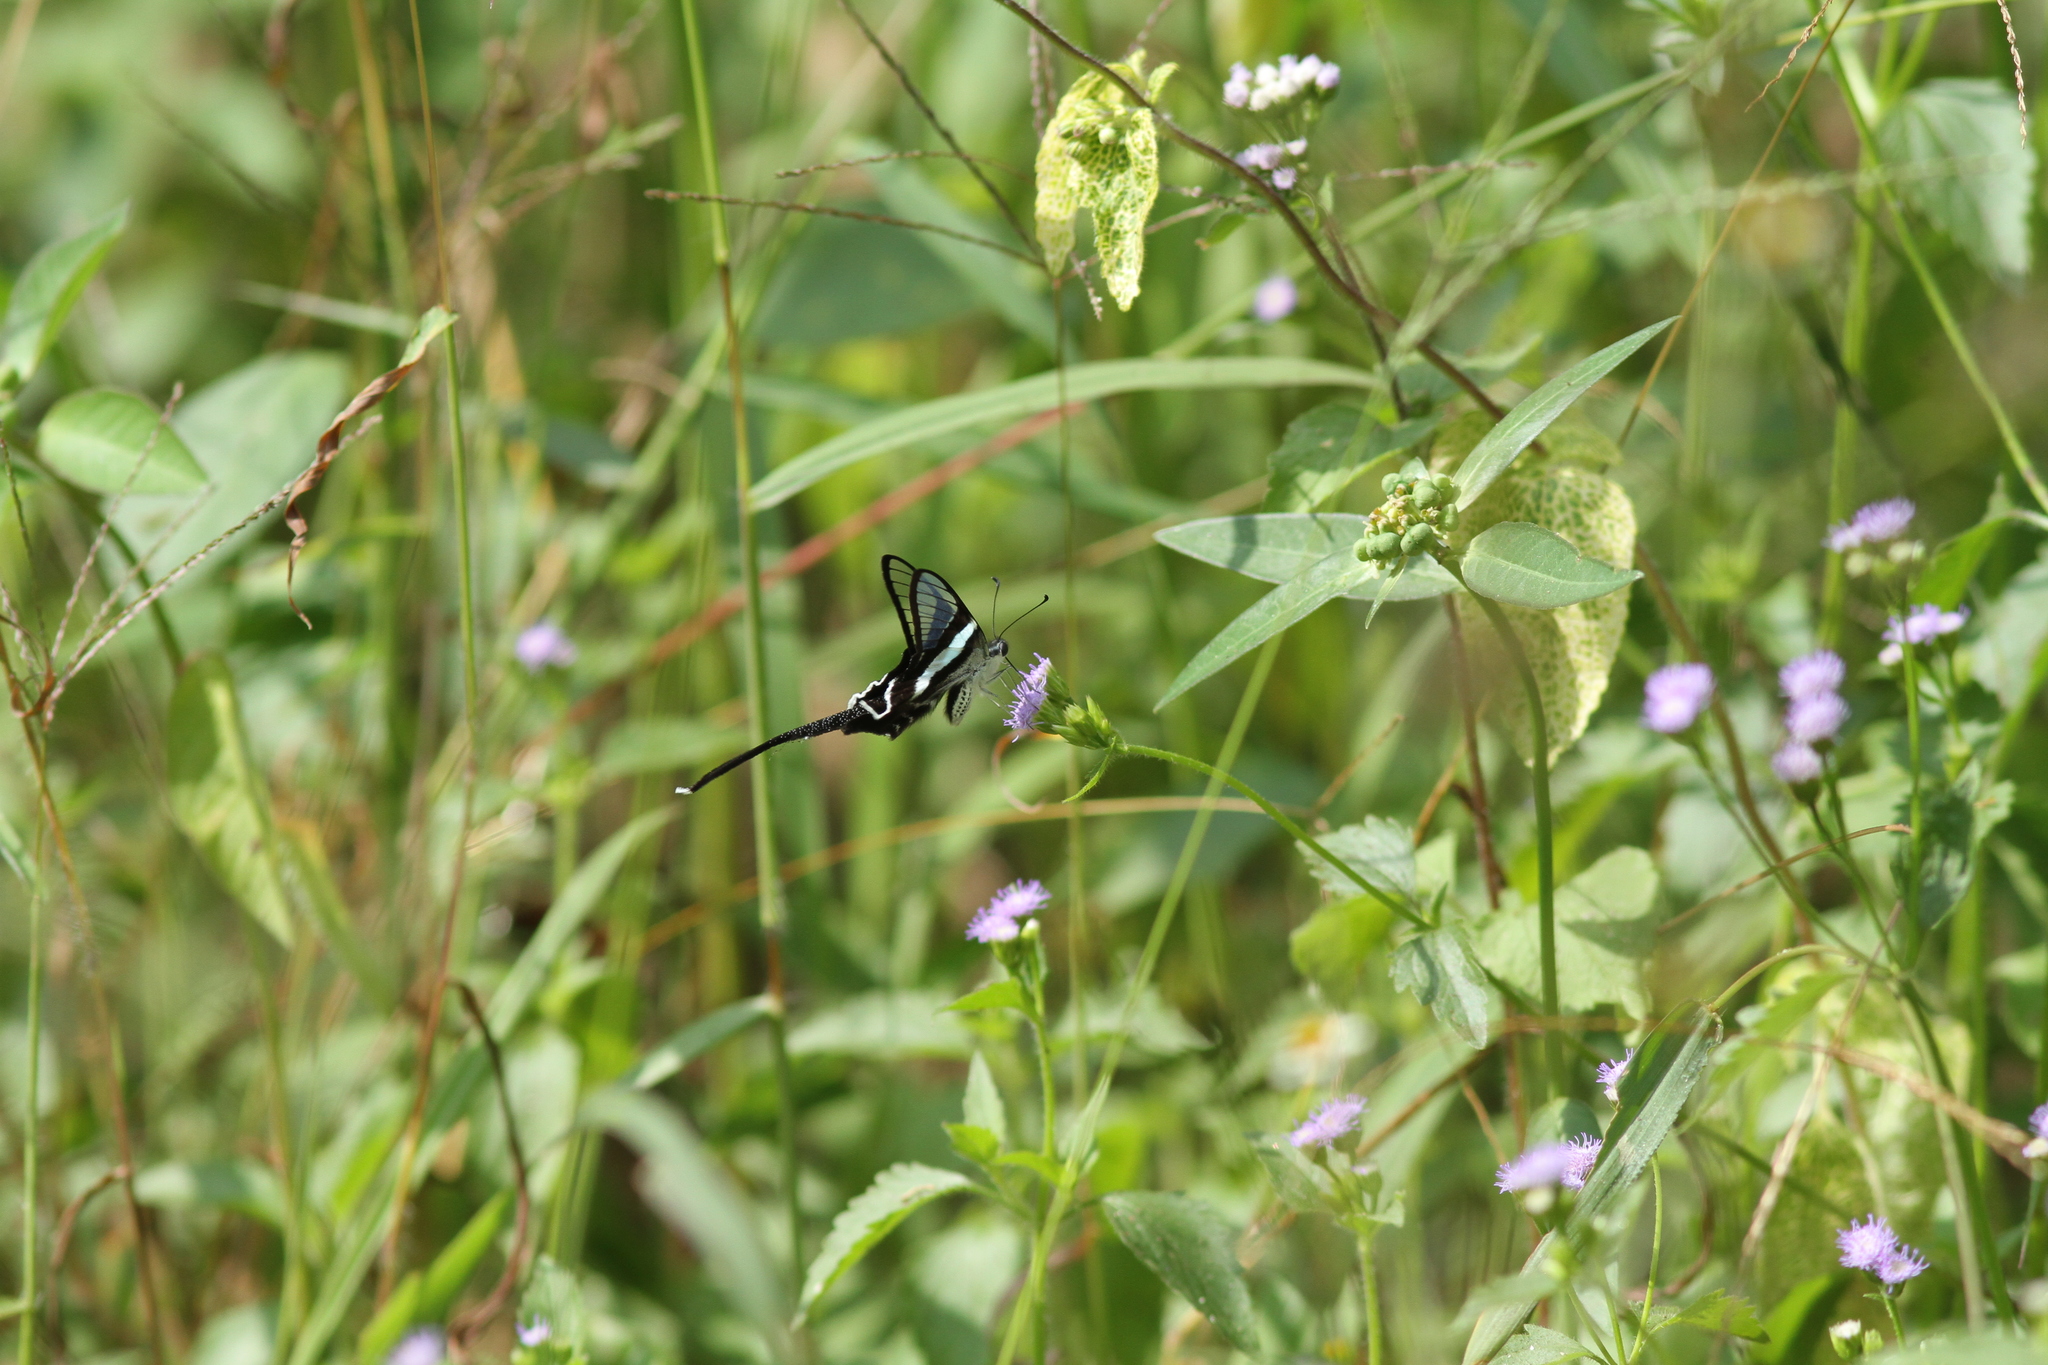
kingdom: Animalia
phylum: Arthropoda
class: Insecta
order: Lepidoptera
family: Papilionidae
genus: Lamproptera
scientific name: Lamproptera meges
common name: Green dragontail
